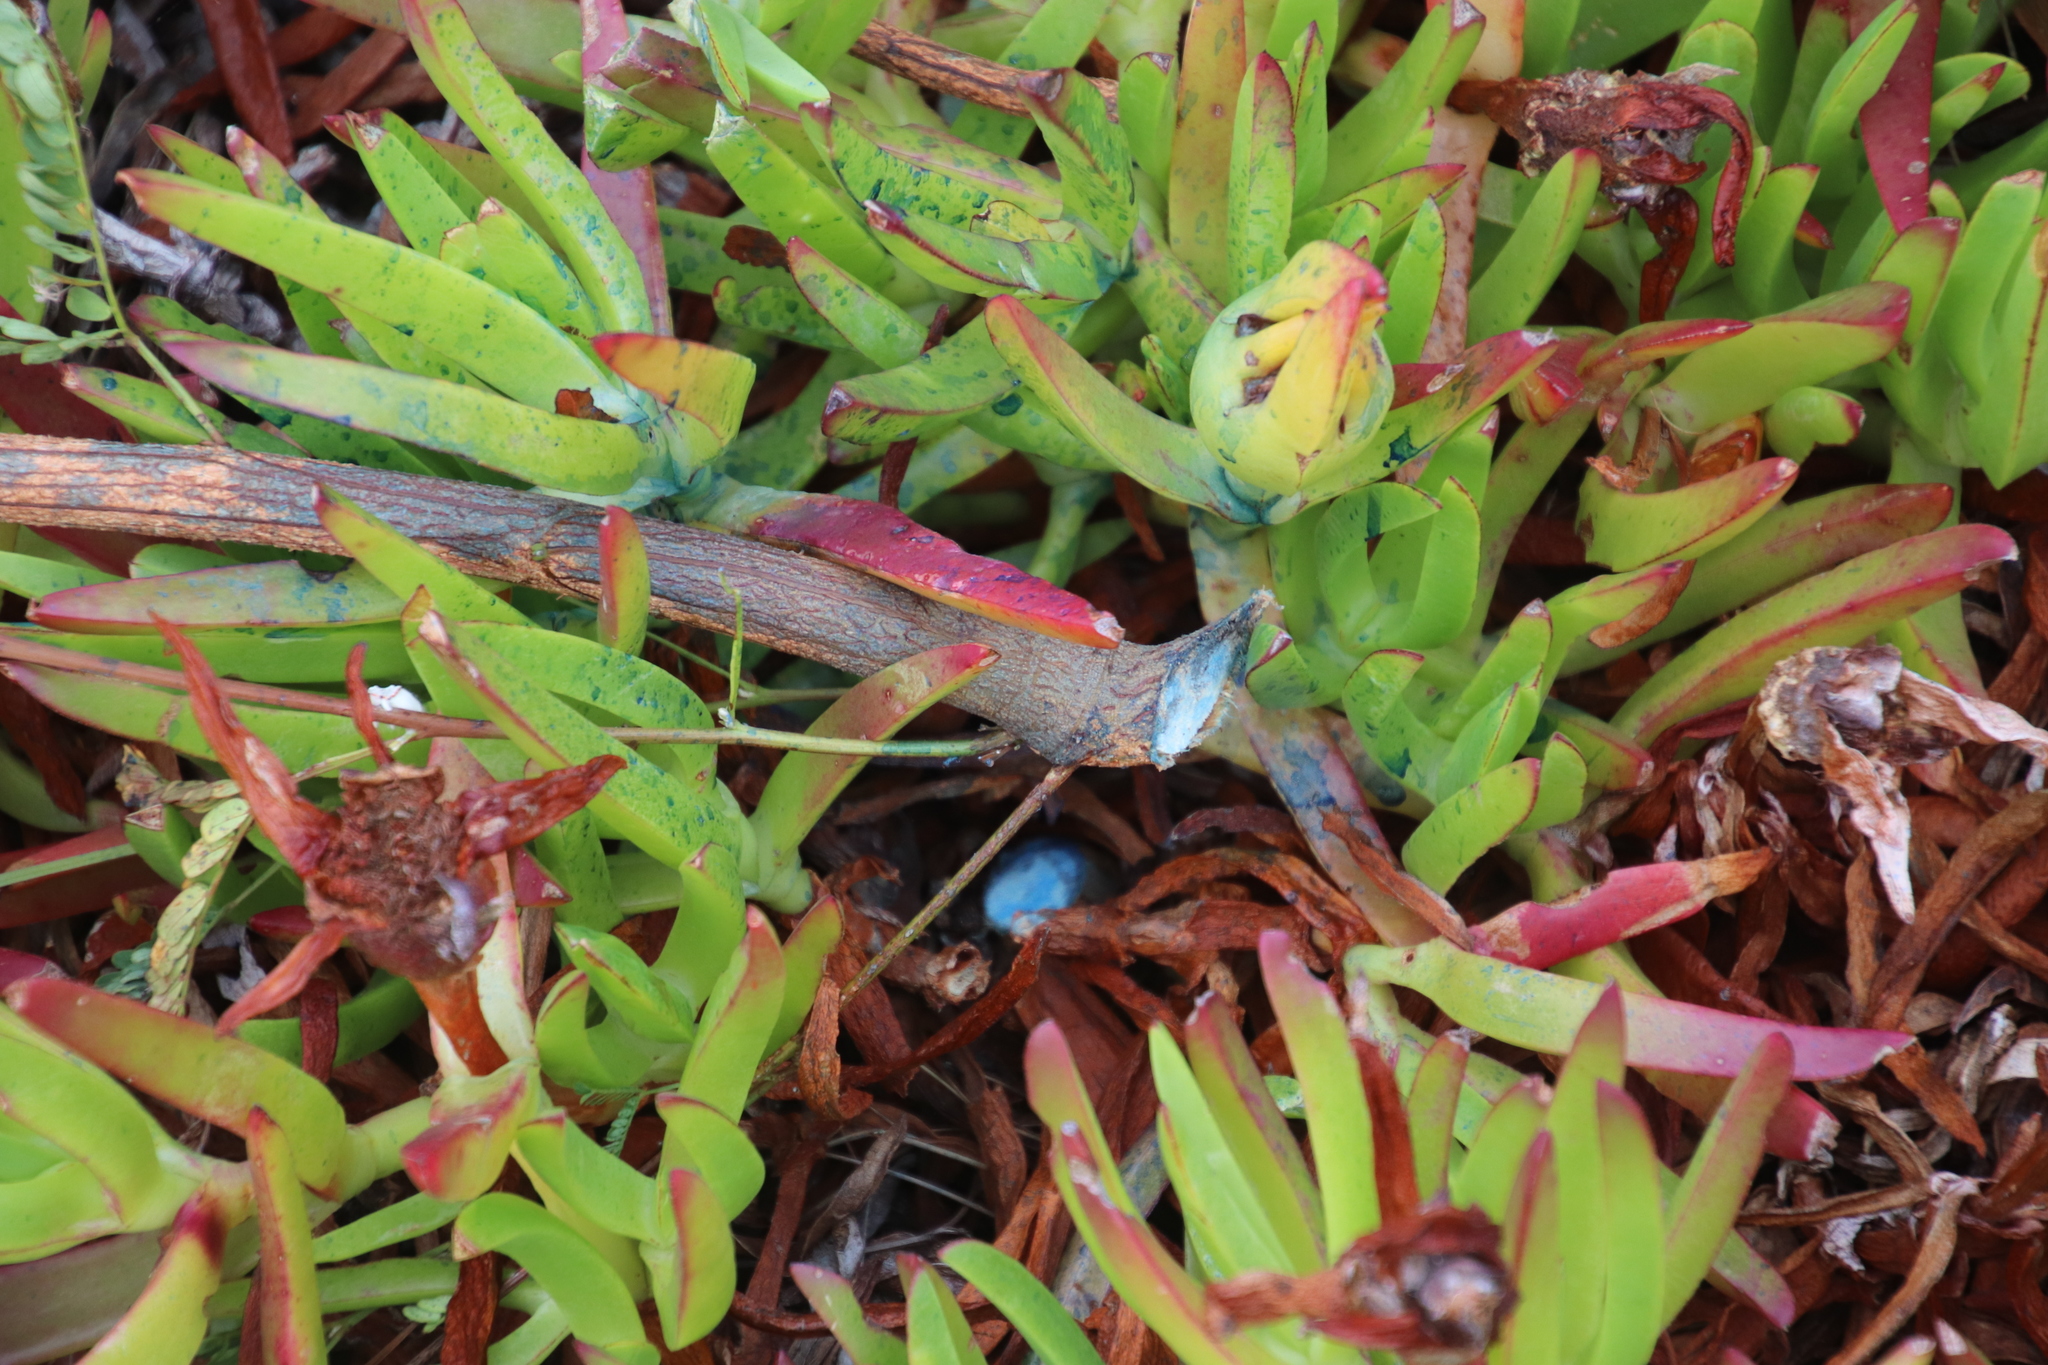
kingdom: Plantae
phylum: Tracheophyta
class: Magnoliopsida
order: Fabales
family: Fabaceae
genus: Acacia
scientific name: Acacia melanoxylon
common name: Blackwood
